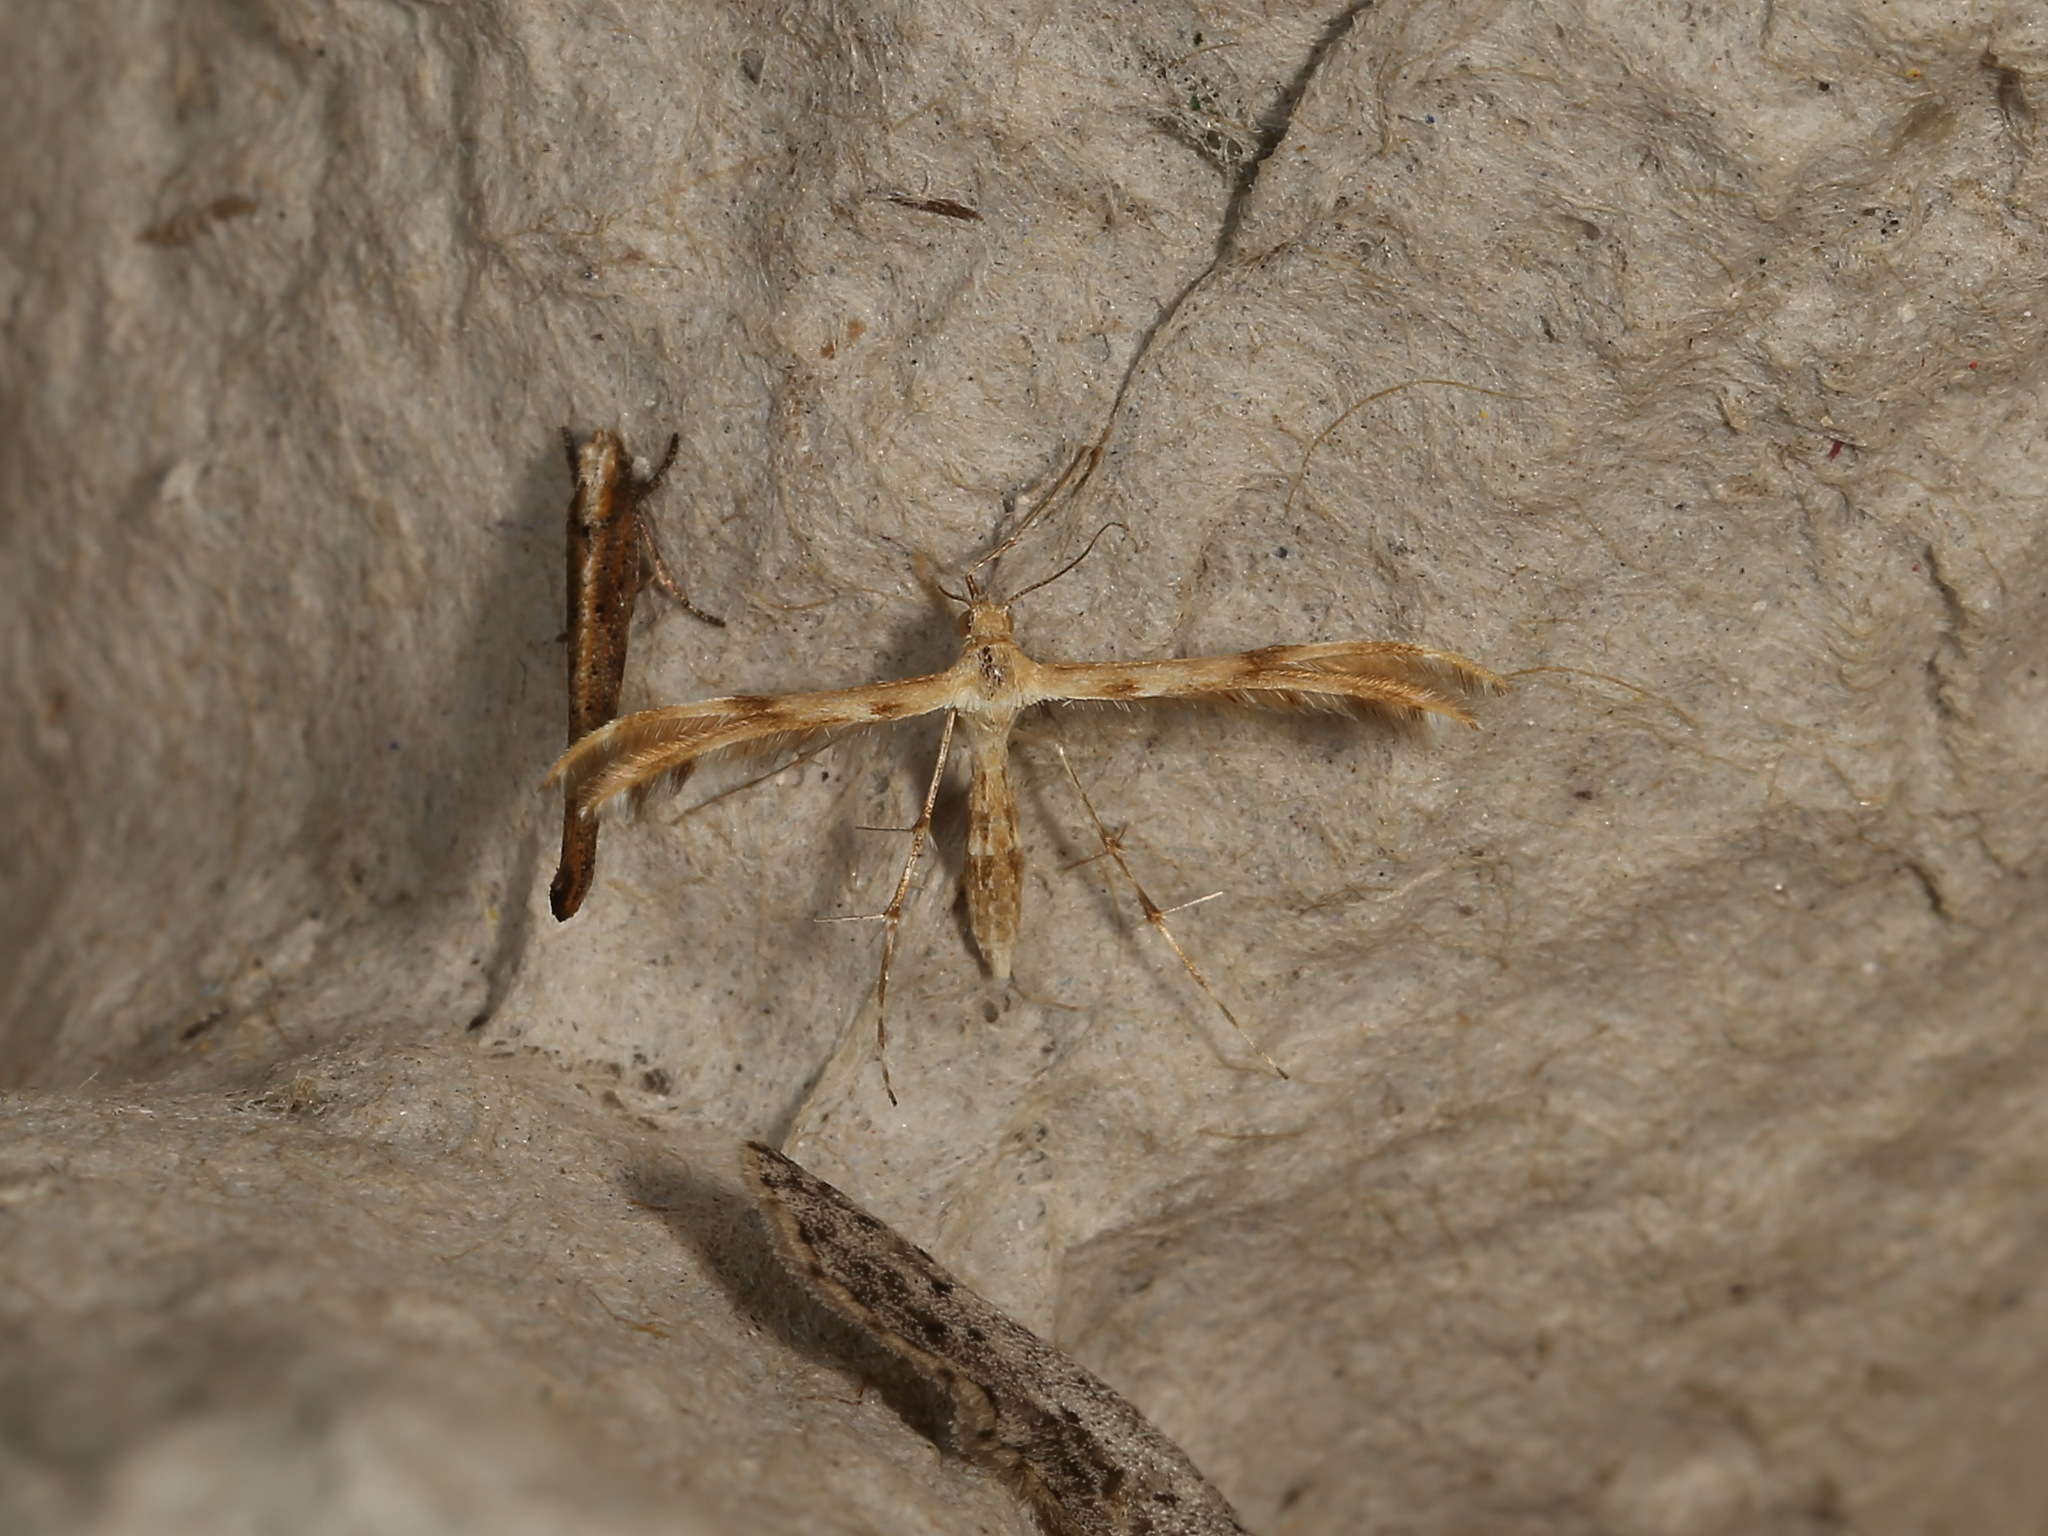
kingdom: Animalia
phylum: Arthropoda
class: Insecta
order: Lepidoptera
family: Pterophoridae
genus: Trichoptilus
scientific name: Trichoptilus ceramodes
